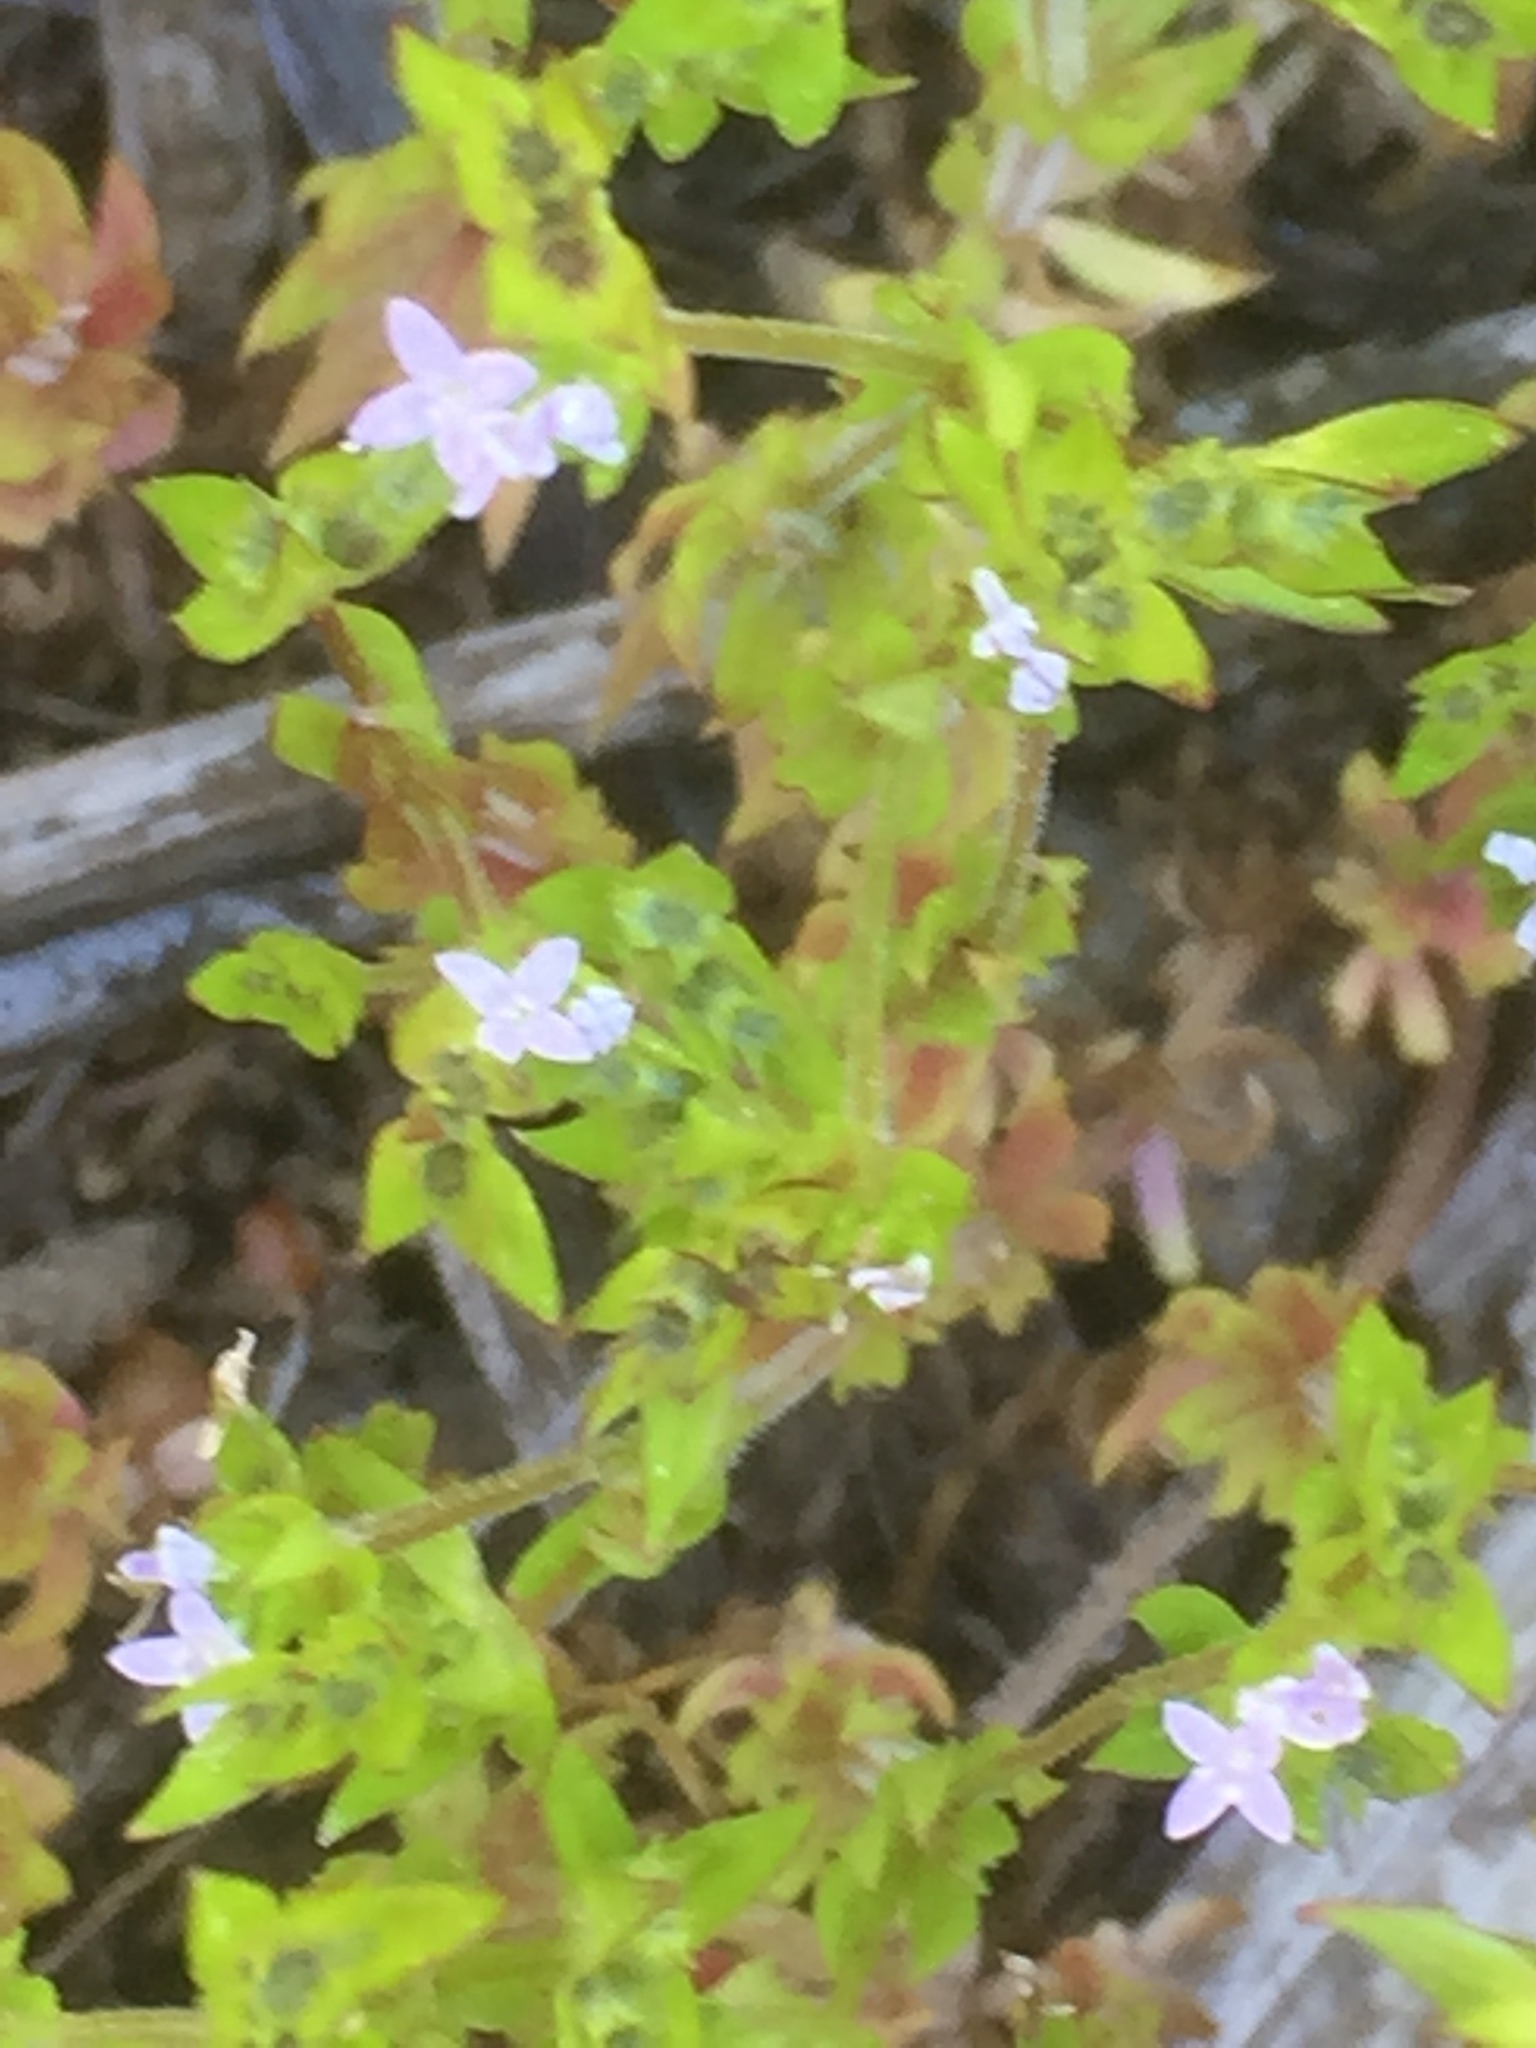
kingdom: Plantae
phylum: Tracheophyta
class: Magnoliopsida
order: Gentianales
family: Rubiaceae
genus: Sherardia
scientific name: Sherardia arvensis
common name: Field madder
